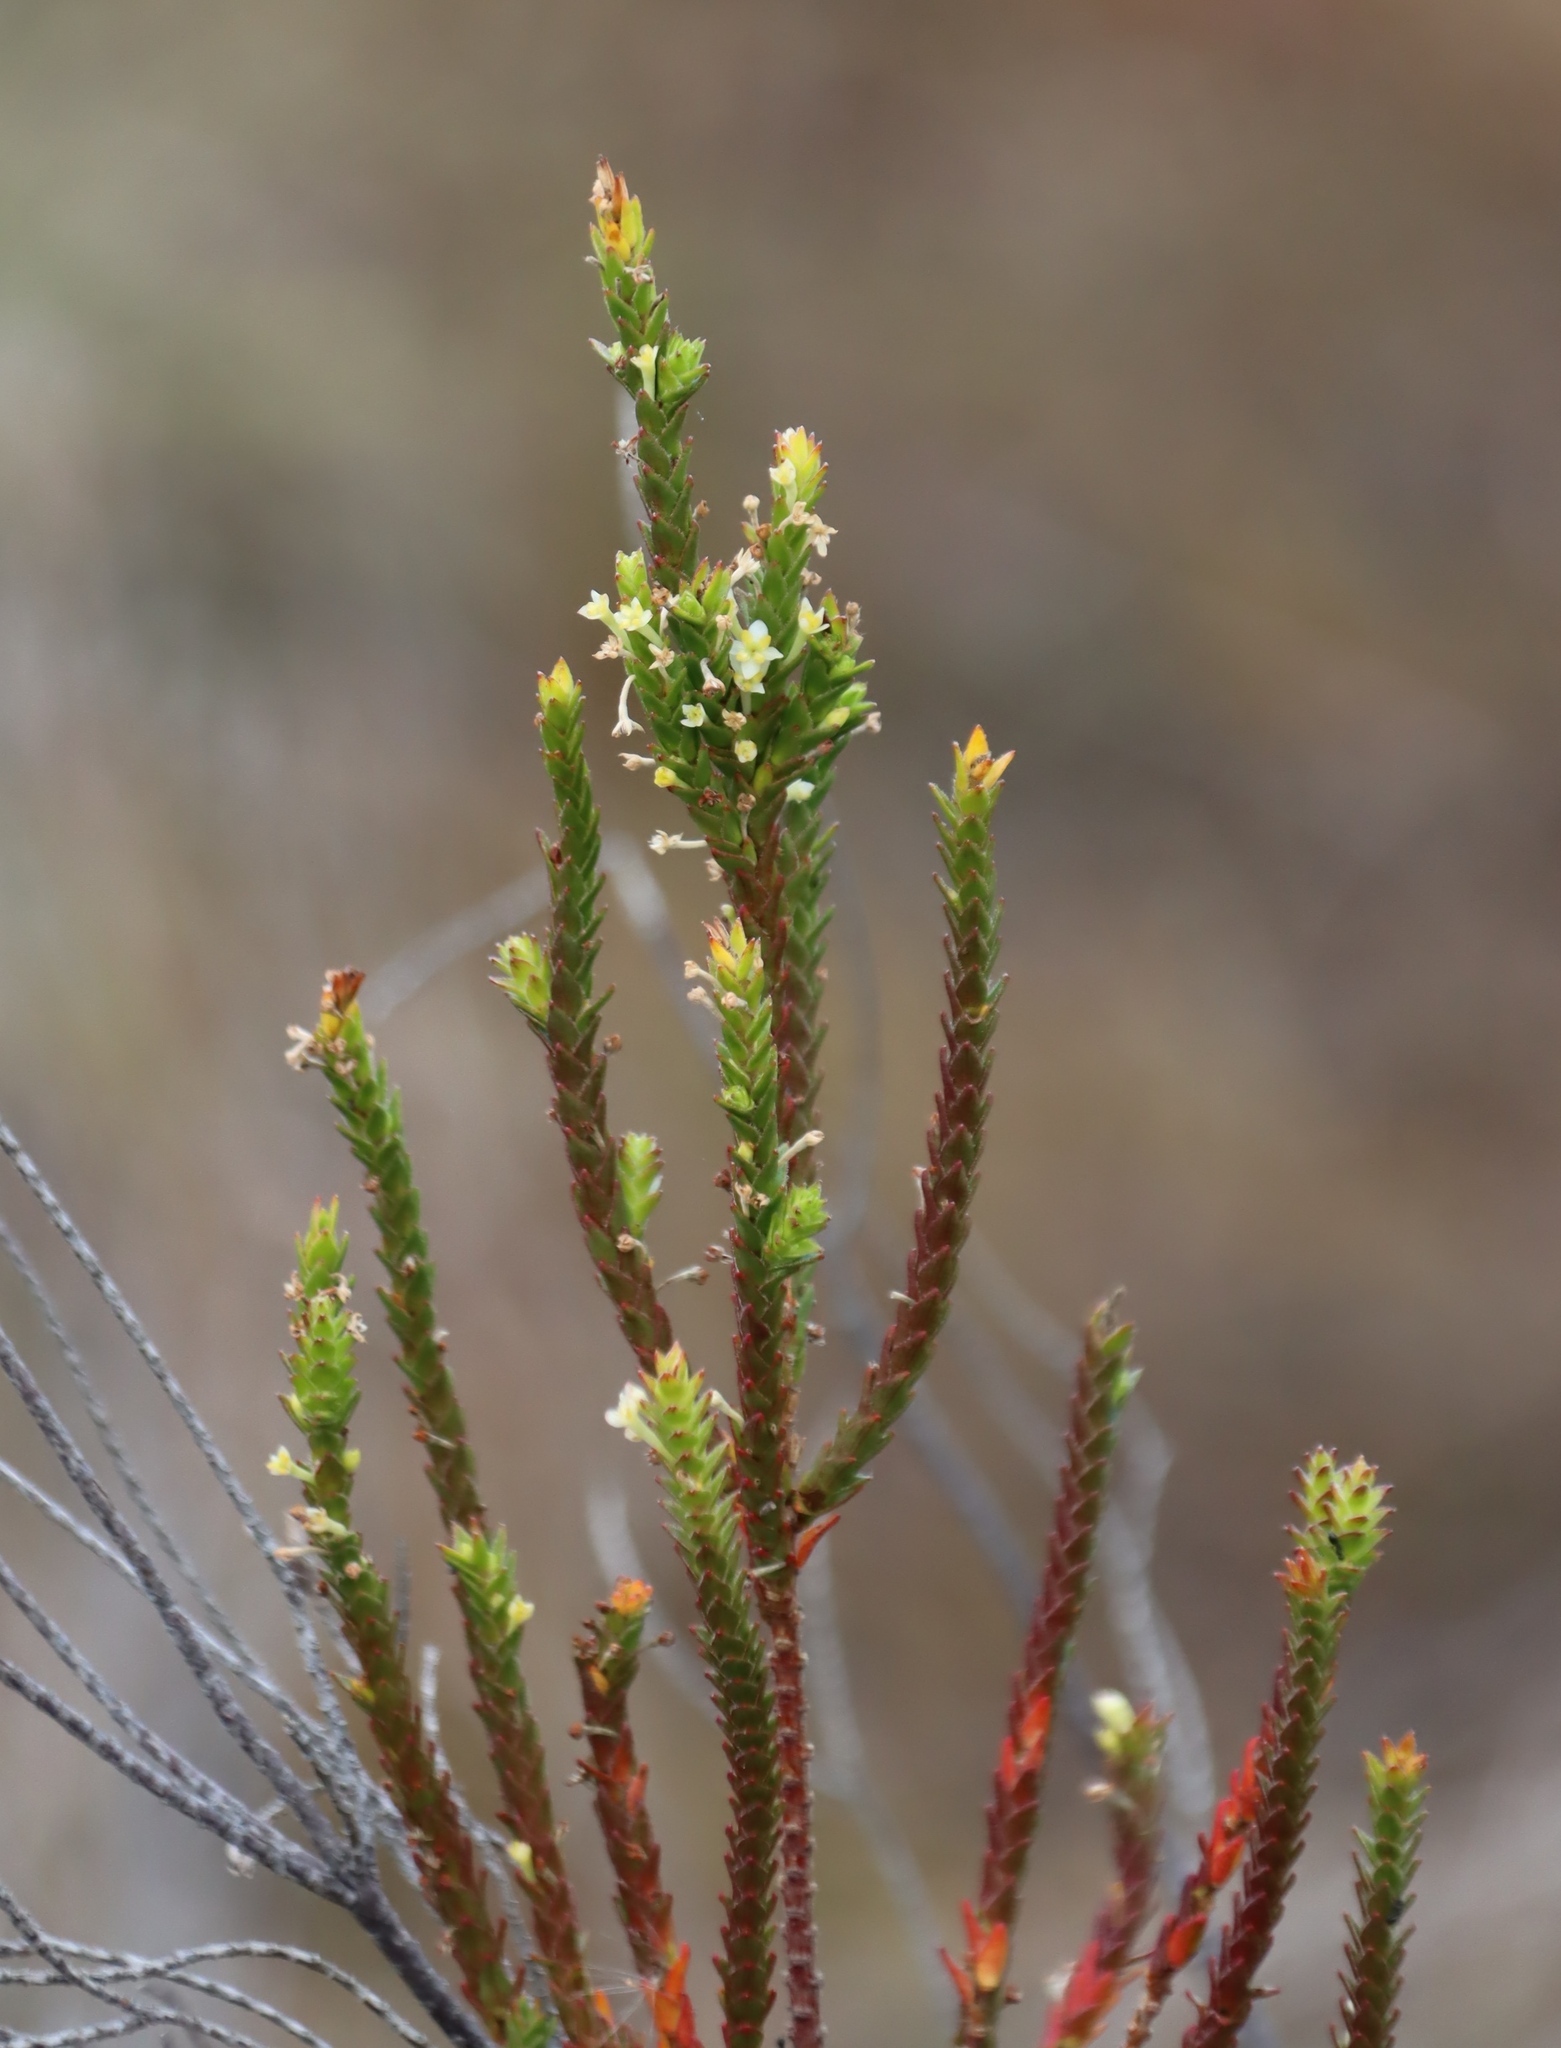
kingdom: Plantae
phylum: Tracheophyta
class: Magnoliopsida
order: Malvales
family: Thymelaeaceae
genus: Struthiola
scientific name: Struthiola striata
